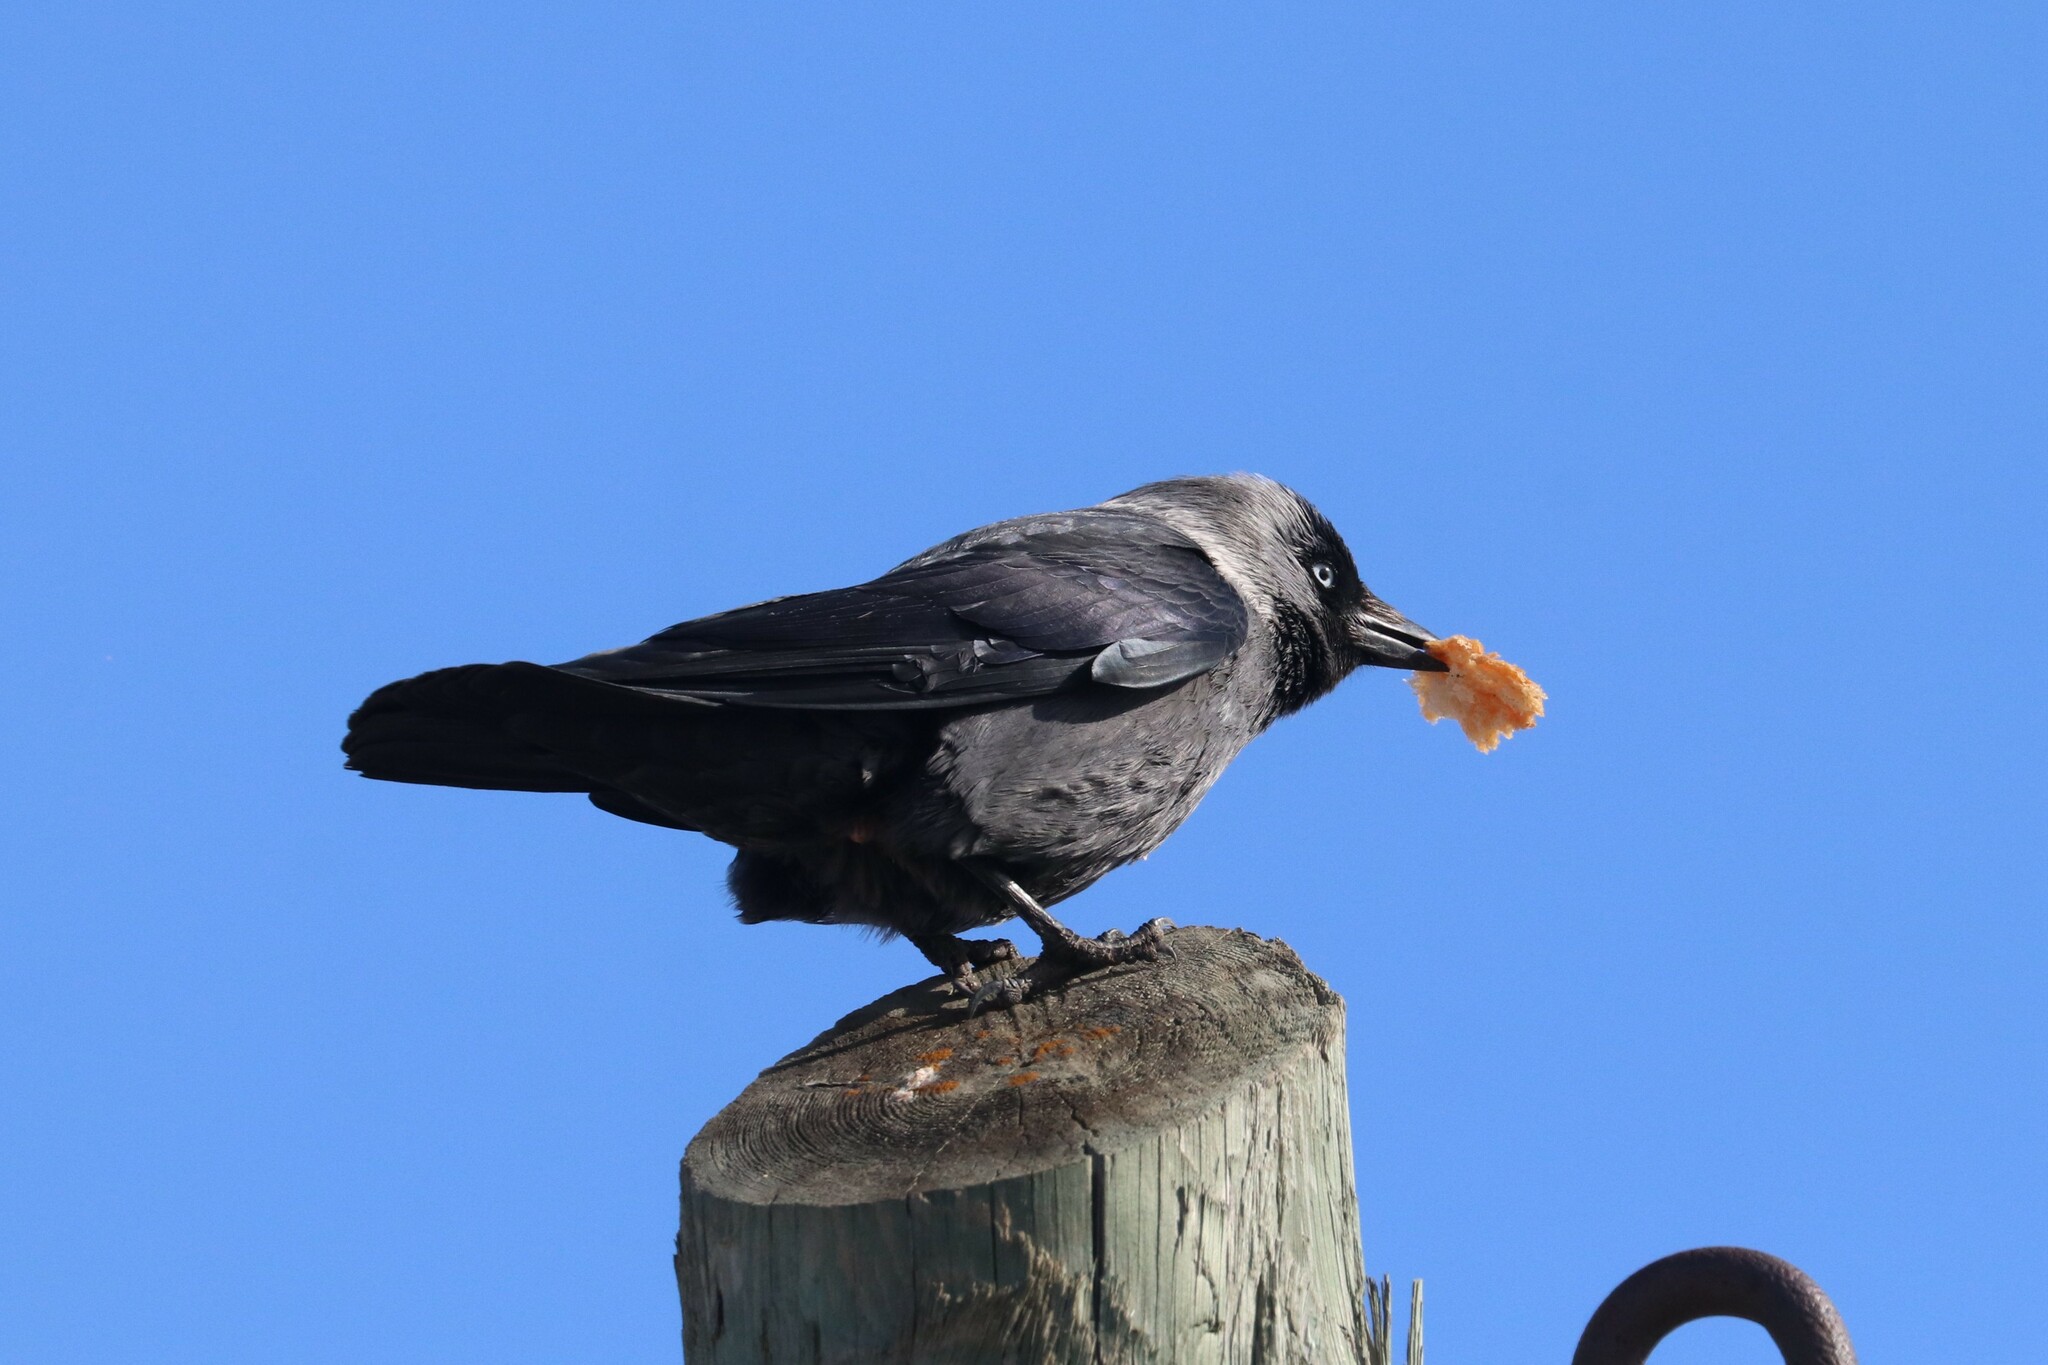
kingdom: Animalia
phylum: Chordata
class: Aves
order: Passeriformes
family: Corvidae
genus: Coloeus
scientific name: Coloeus monedula
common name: Western jackdaw
